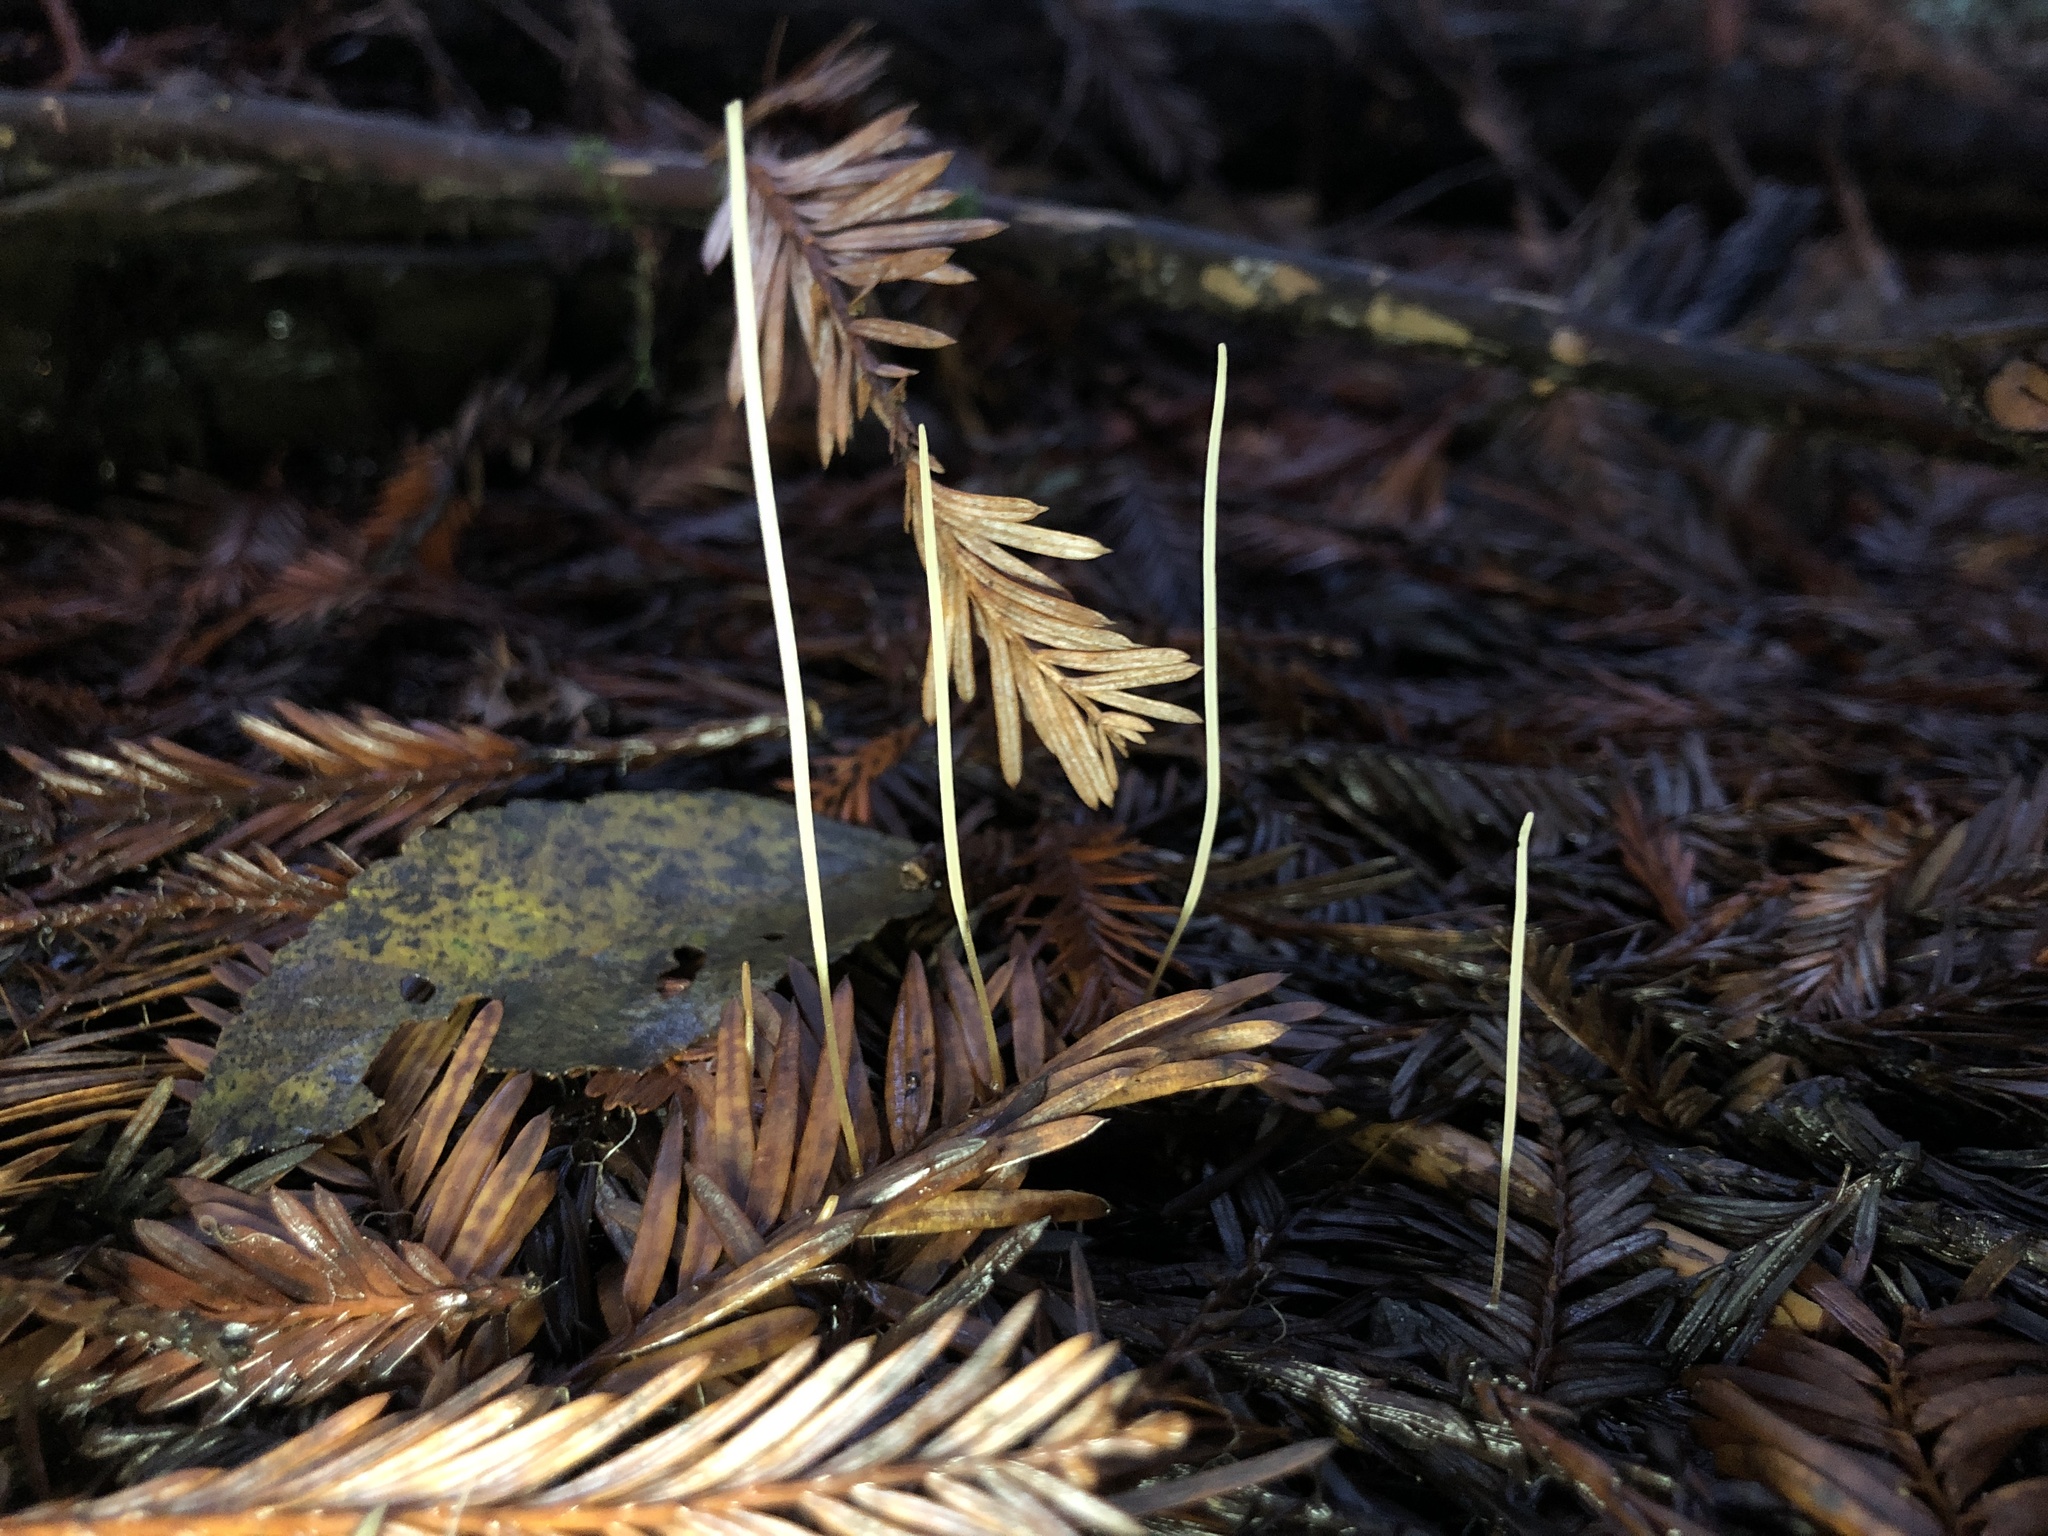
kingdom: Fungi
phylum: Basidiomycota
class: Agaricomycetes
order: Agaricales
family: Typhulaceae
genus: Typhula
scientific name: Typhula juncea
